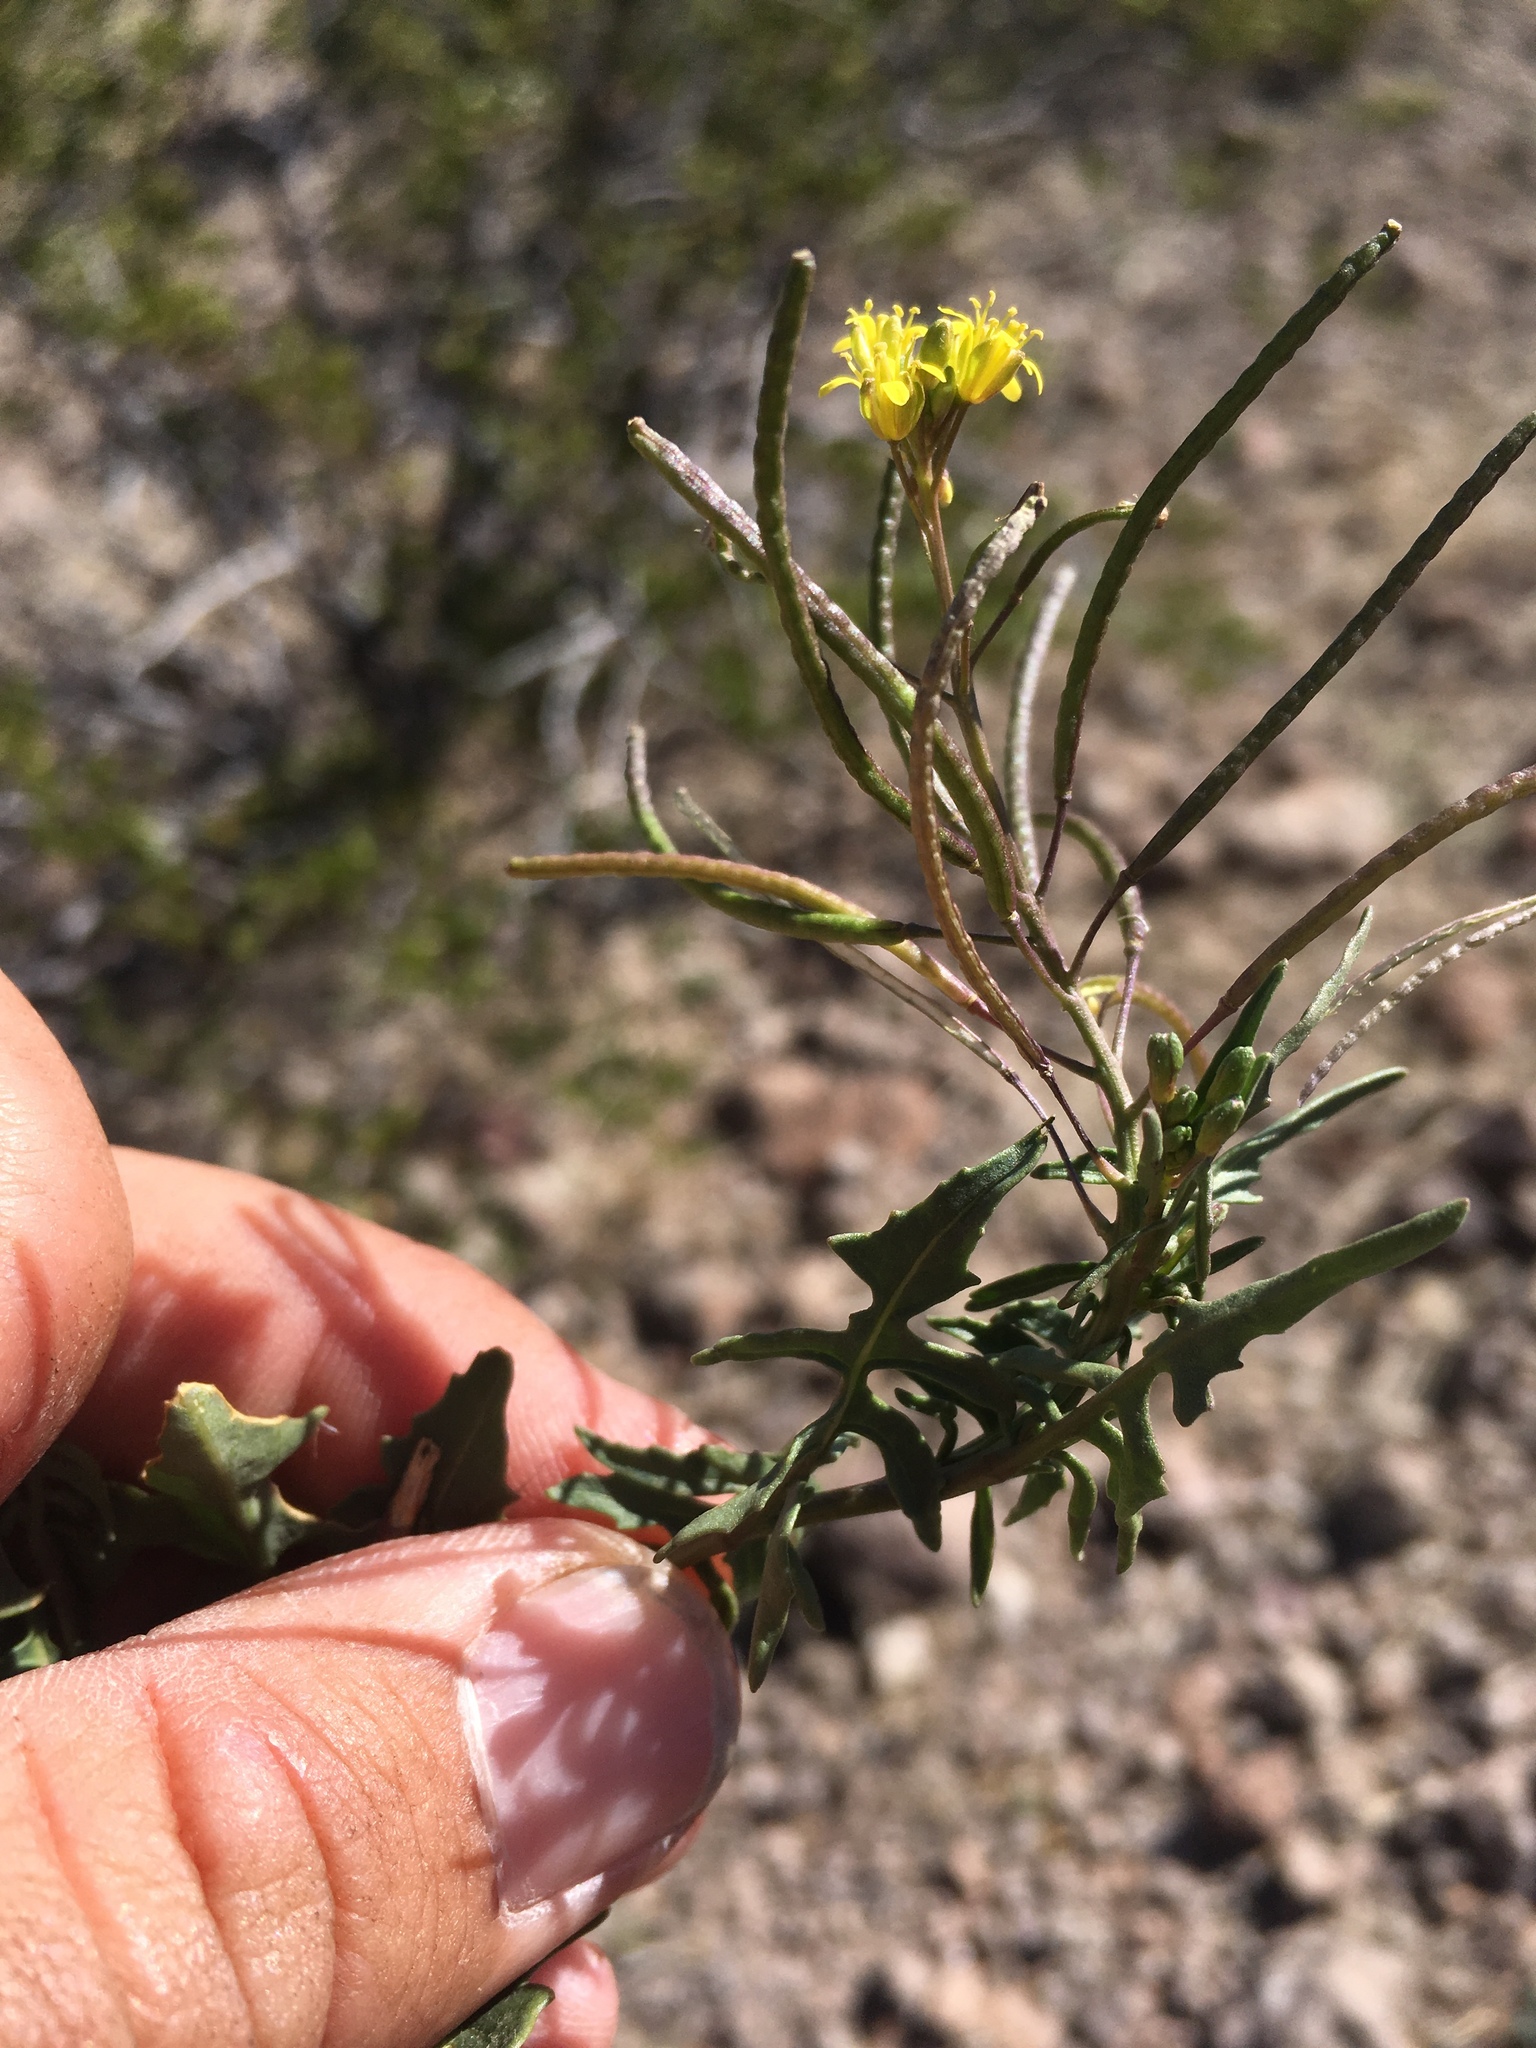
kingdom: Plantae
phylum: Tracheophyta
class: Magnoliopsida
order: Brassicales
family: Brassicaceae
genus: Sisymbrium
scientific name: Sisymbrium irio
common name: London rocket
